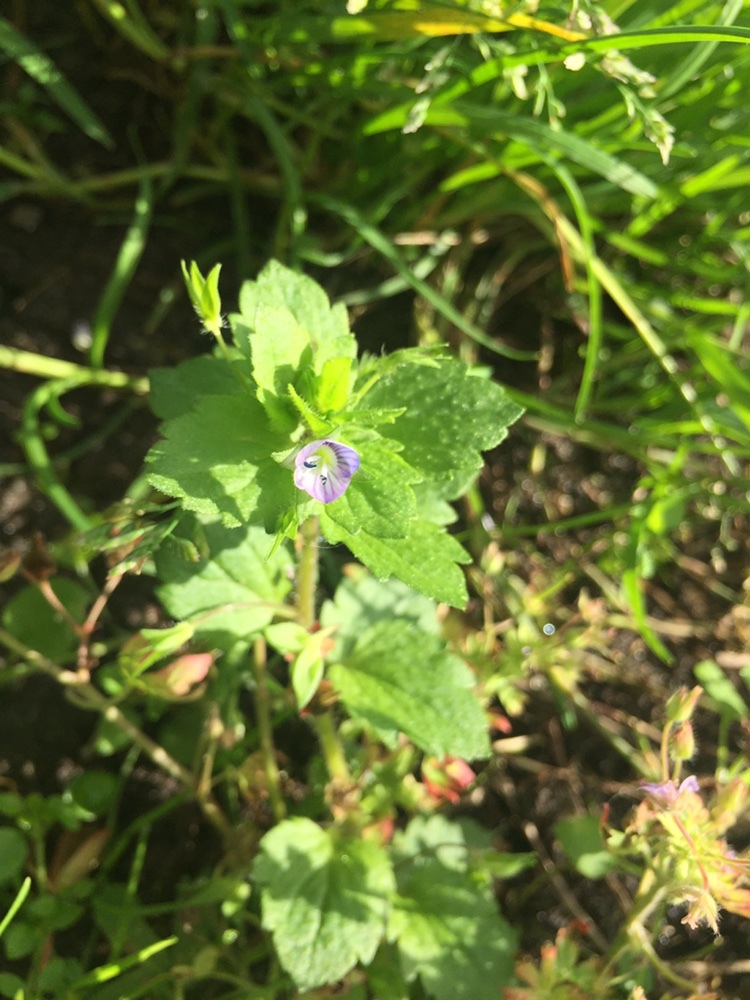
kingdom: Plantae
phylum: Tracheophyta
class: Magnoliopsida
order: Lamiales
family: Plantaginaceae
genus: Veronica
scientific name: Veronica persica
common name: Common field-speedwell
